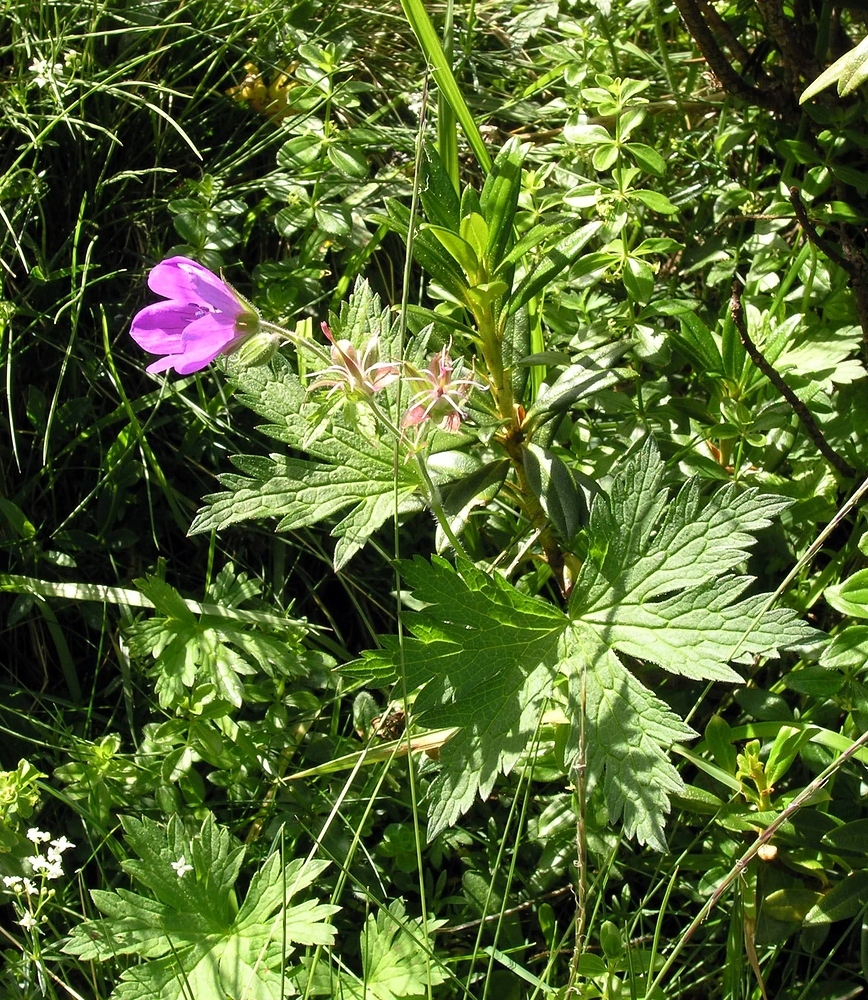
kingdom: Plantae
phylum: Tracheophyta
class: Magnoliopsida
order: Geraniales
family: Geraniaceae
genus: Geranium
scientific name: Geranium sylvaticum
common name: Wood crane's-bill
